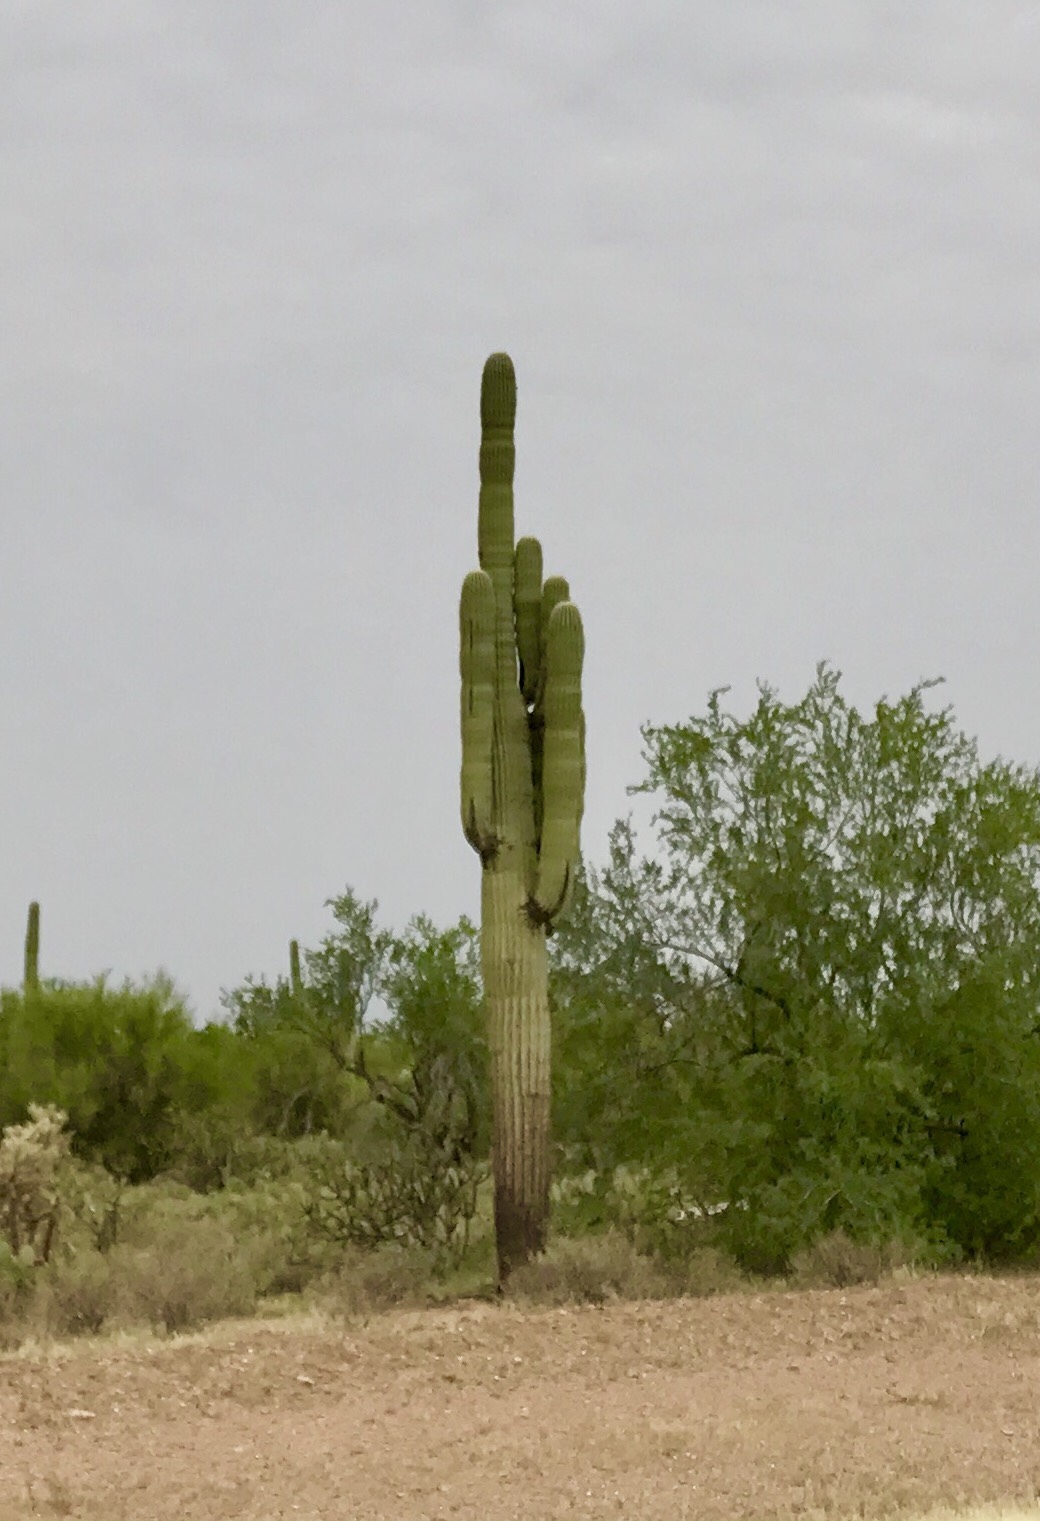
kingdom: Plantae
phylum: Tracheophyta
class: Magnoliopsida
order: Caryophyllales
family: Cactaceae
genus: Carnegiea
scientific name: Carnegiea gigantea
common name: Saguaro
